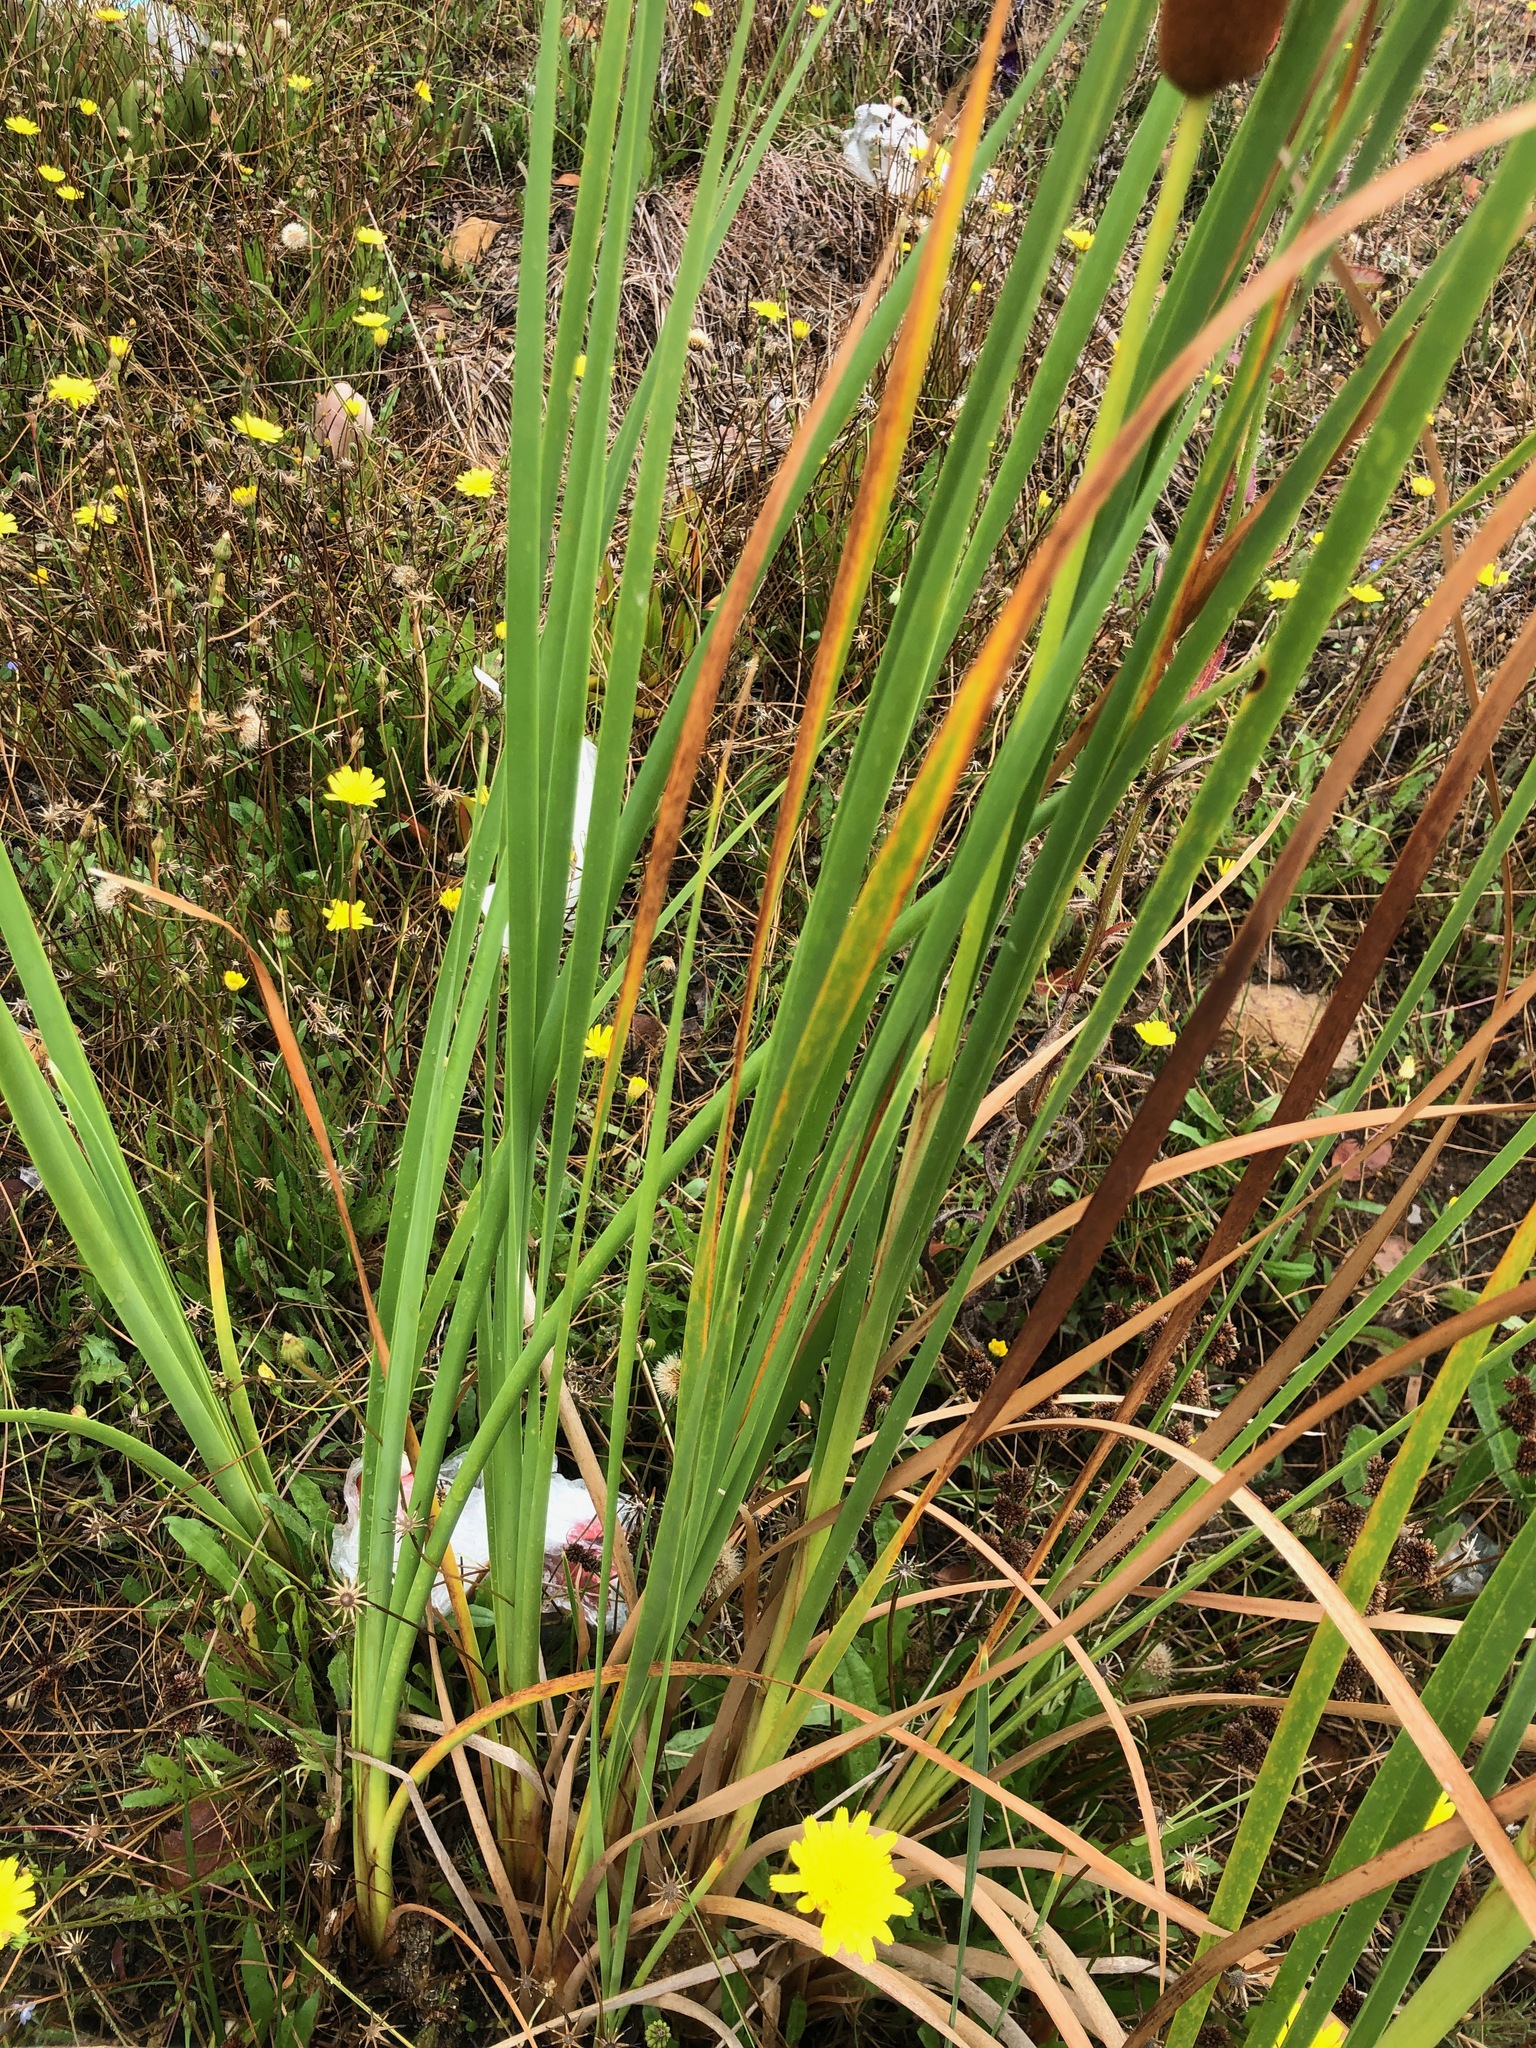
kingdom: Plantae
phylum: Tracheophyta
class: Liliopsida
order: Poales
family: Typhaceae
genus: Typha
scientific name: Typha capensis
